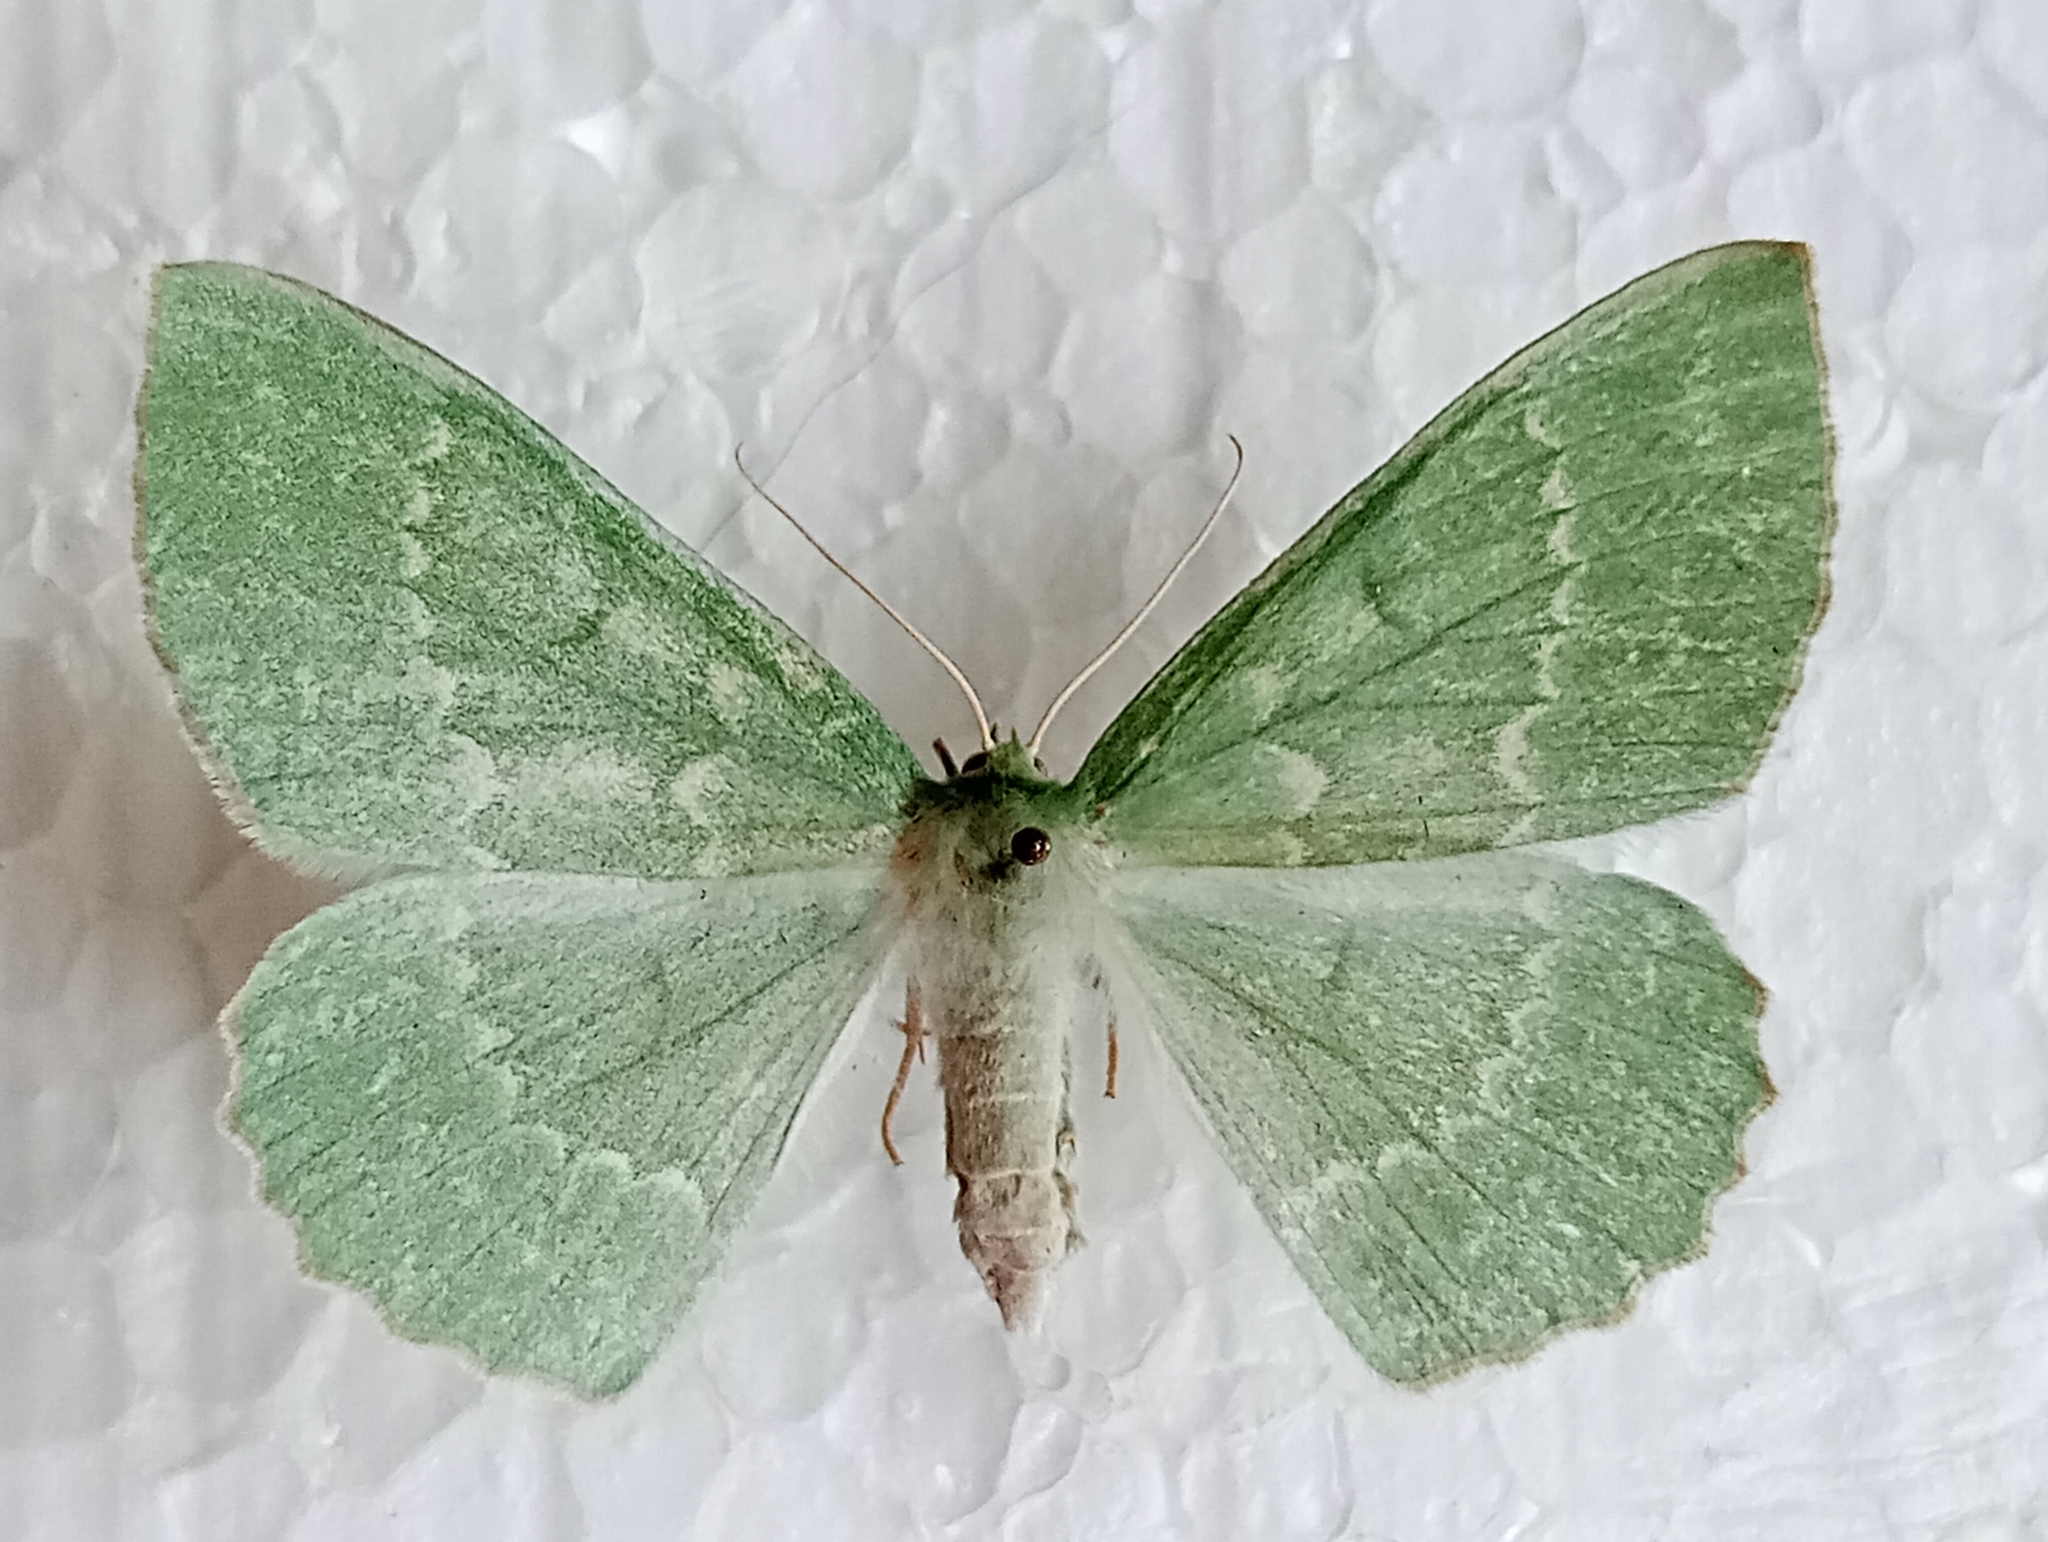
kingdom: Animalia
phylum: Arthropoda
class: Insecta
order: Lepidoptera
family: Geometridae
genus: Geometra
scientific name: Geometra papilionaria
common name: Large emerald
